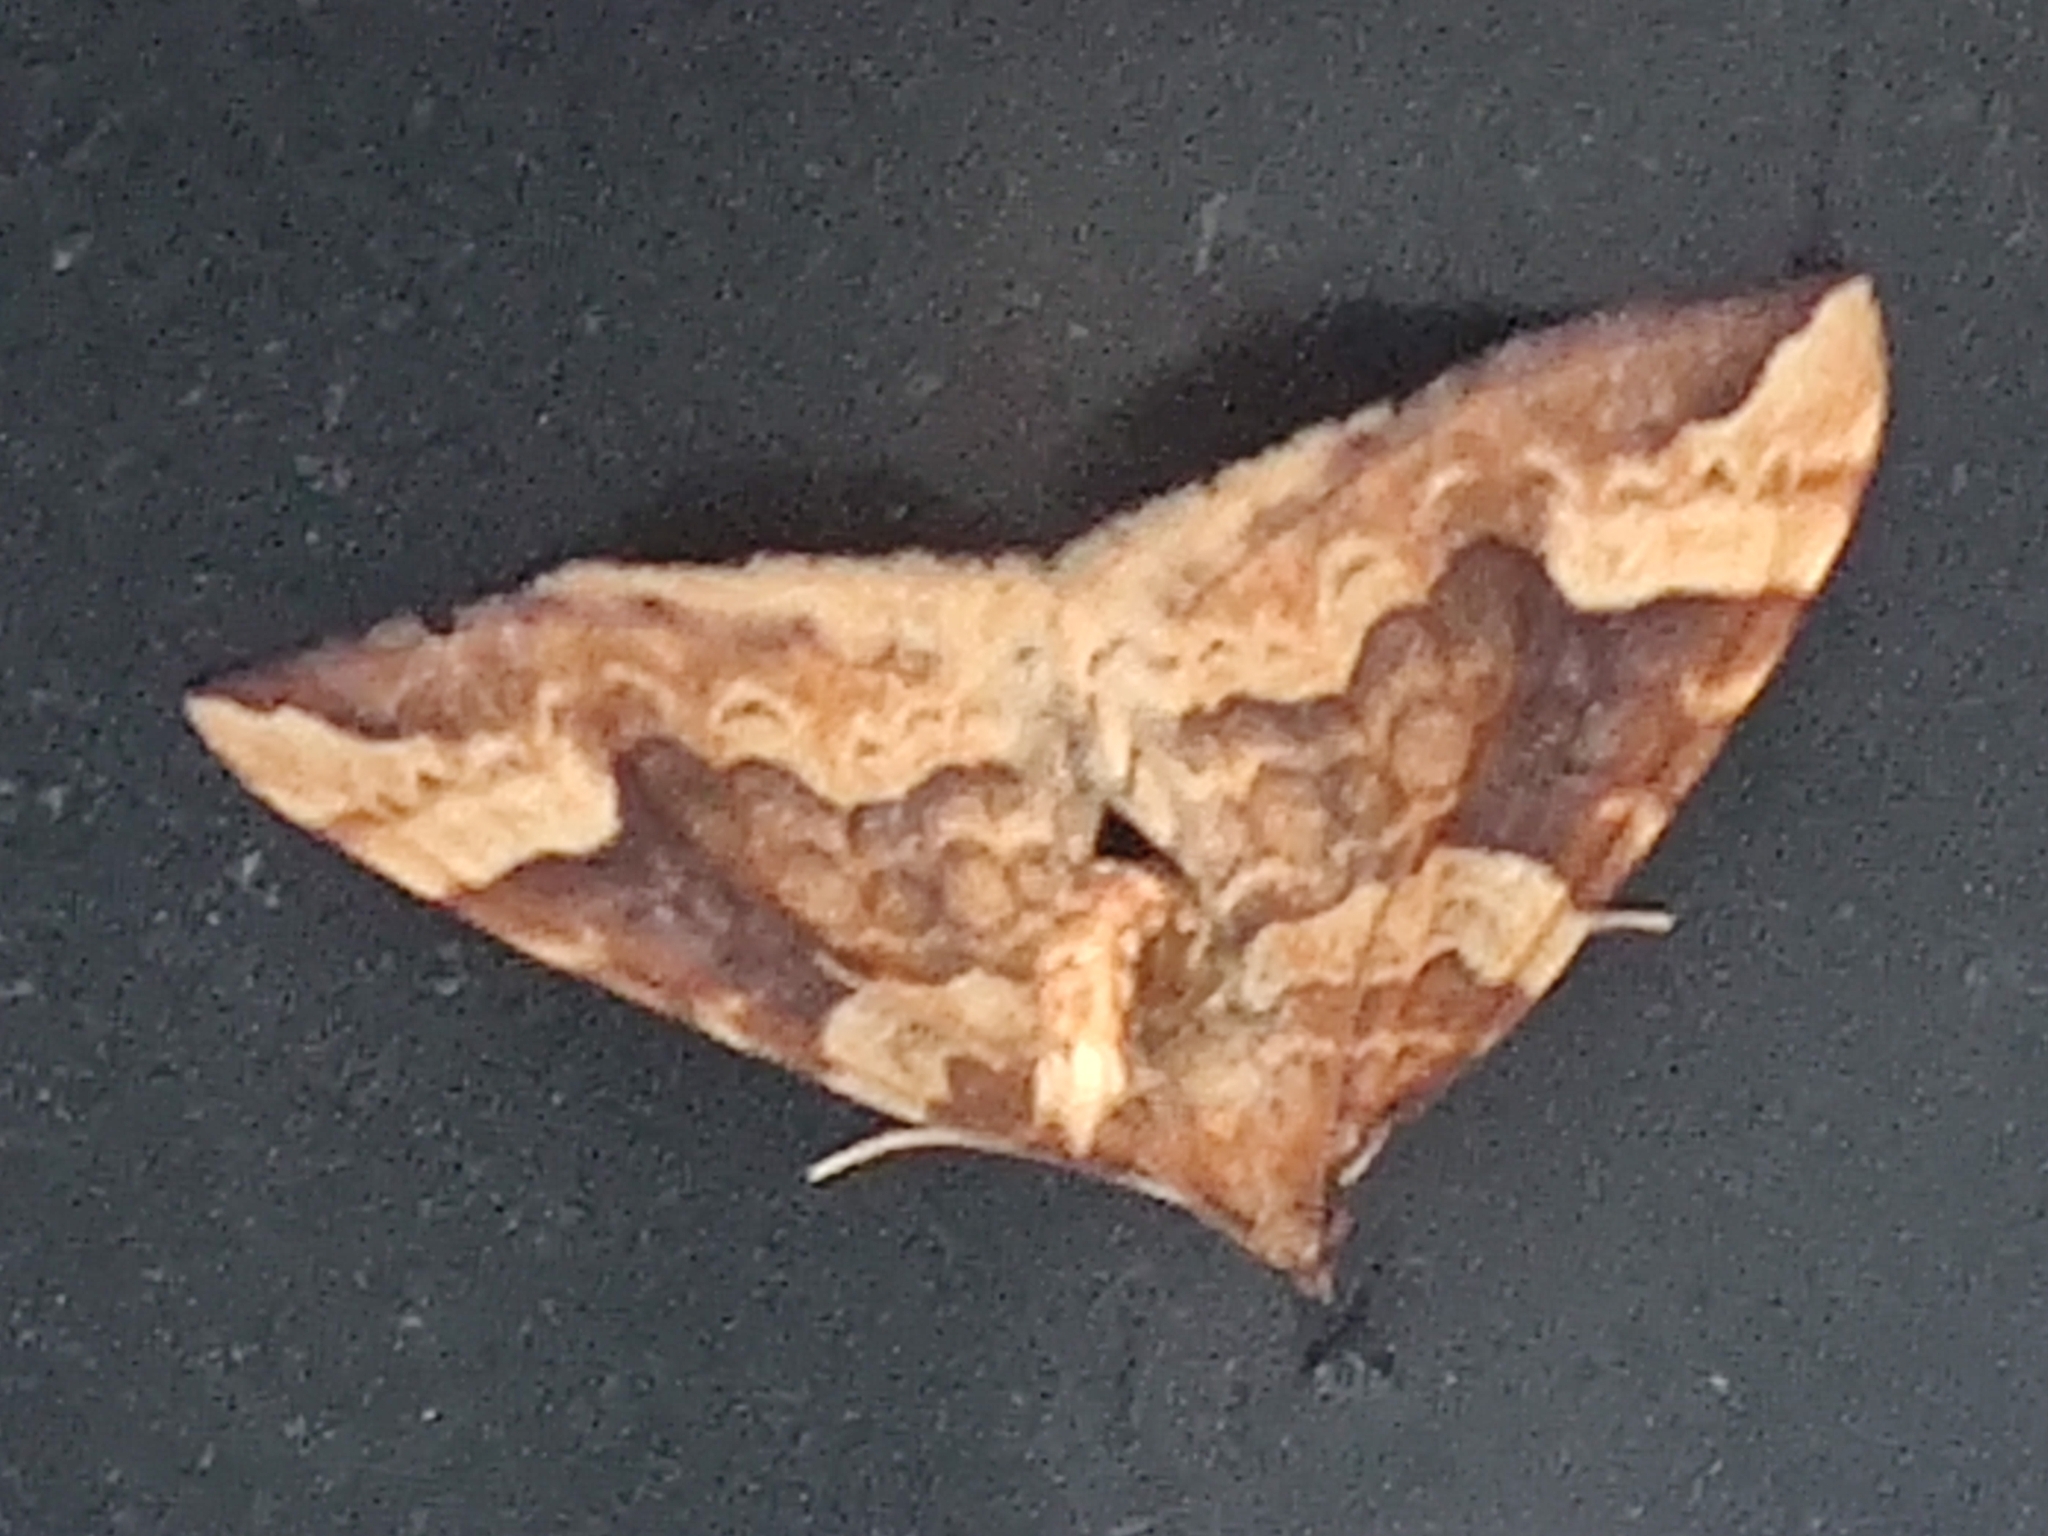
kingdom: Animalia
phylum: Arthropoda
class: Insecta
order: Lepidoptera
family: Geometridae
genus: Eulithis
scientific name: Eulithis populata
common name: Northern spinach
